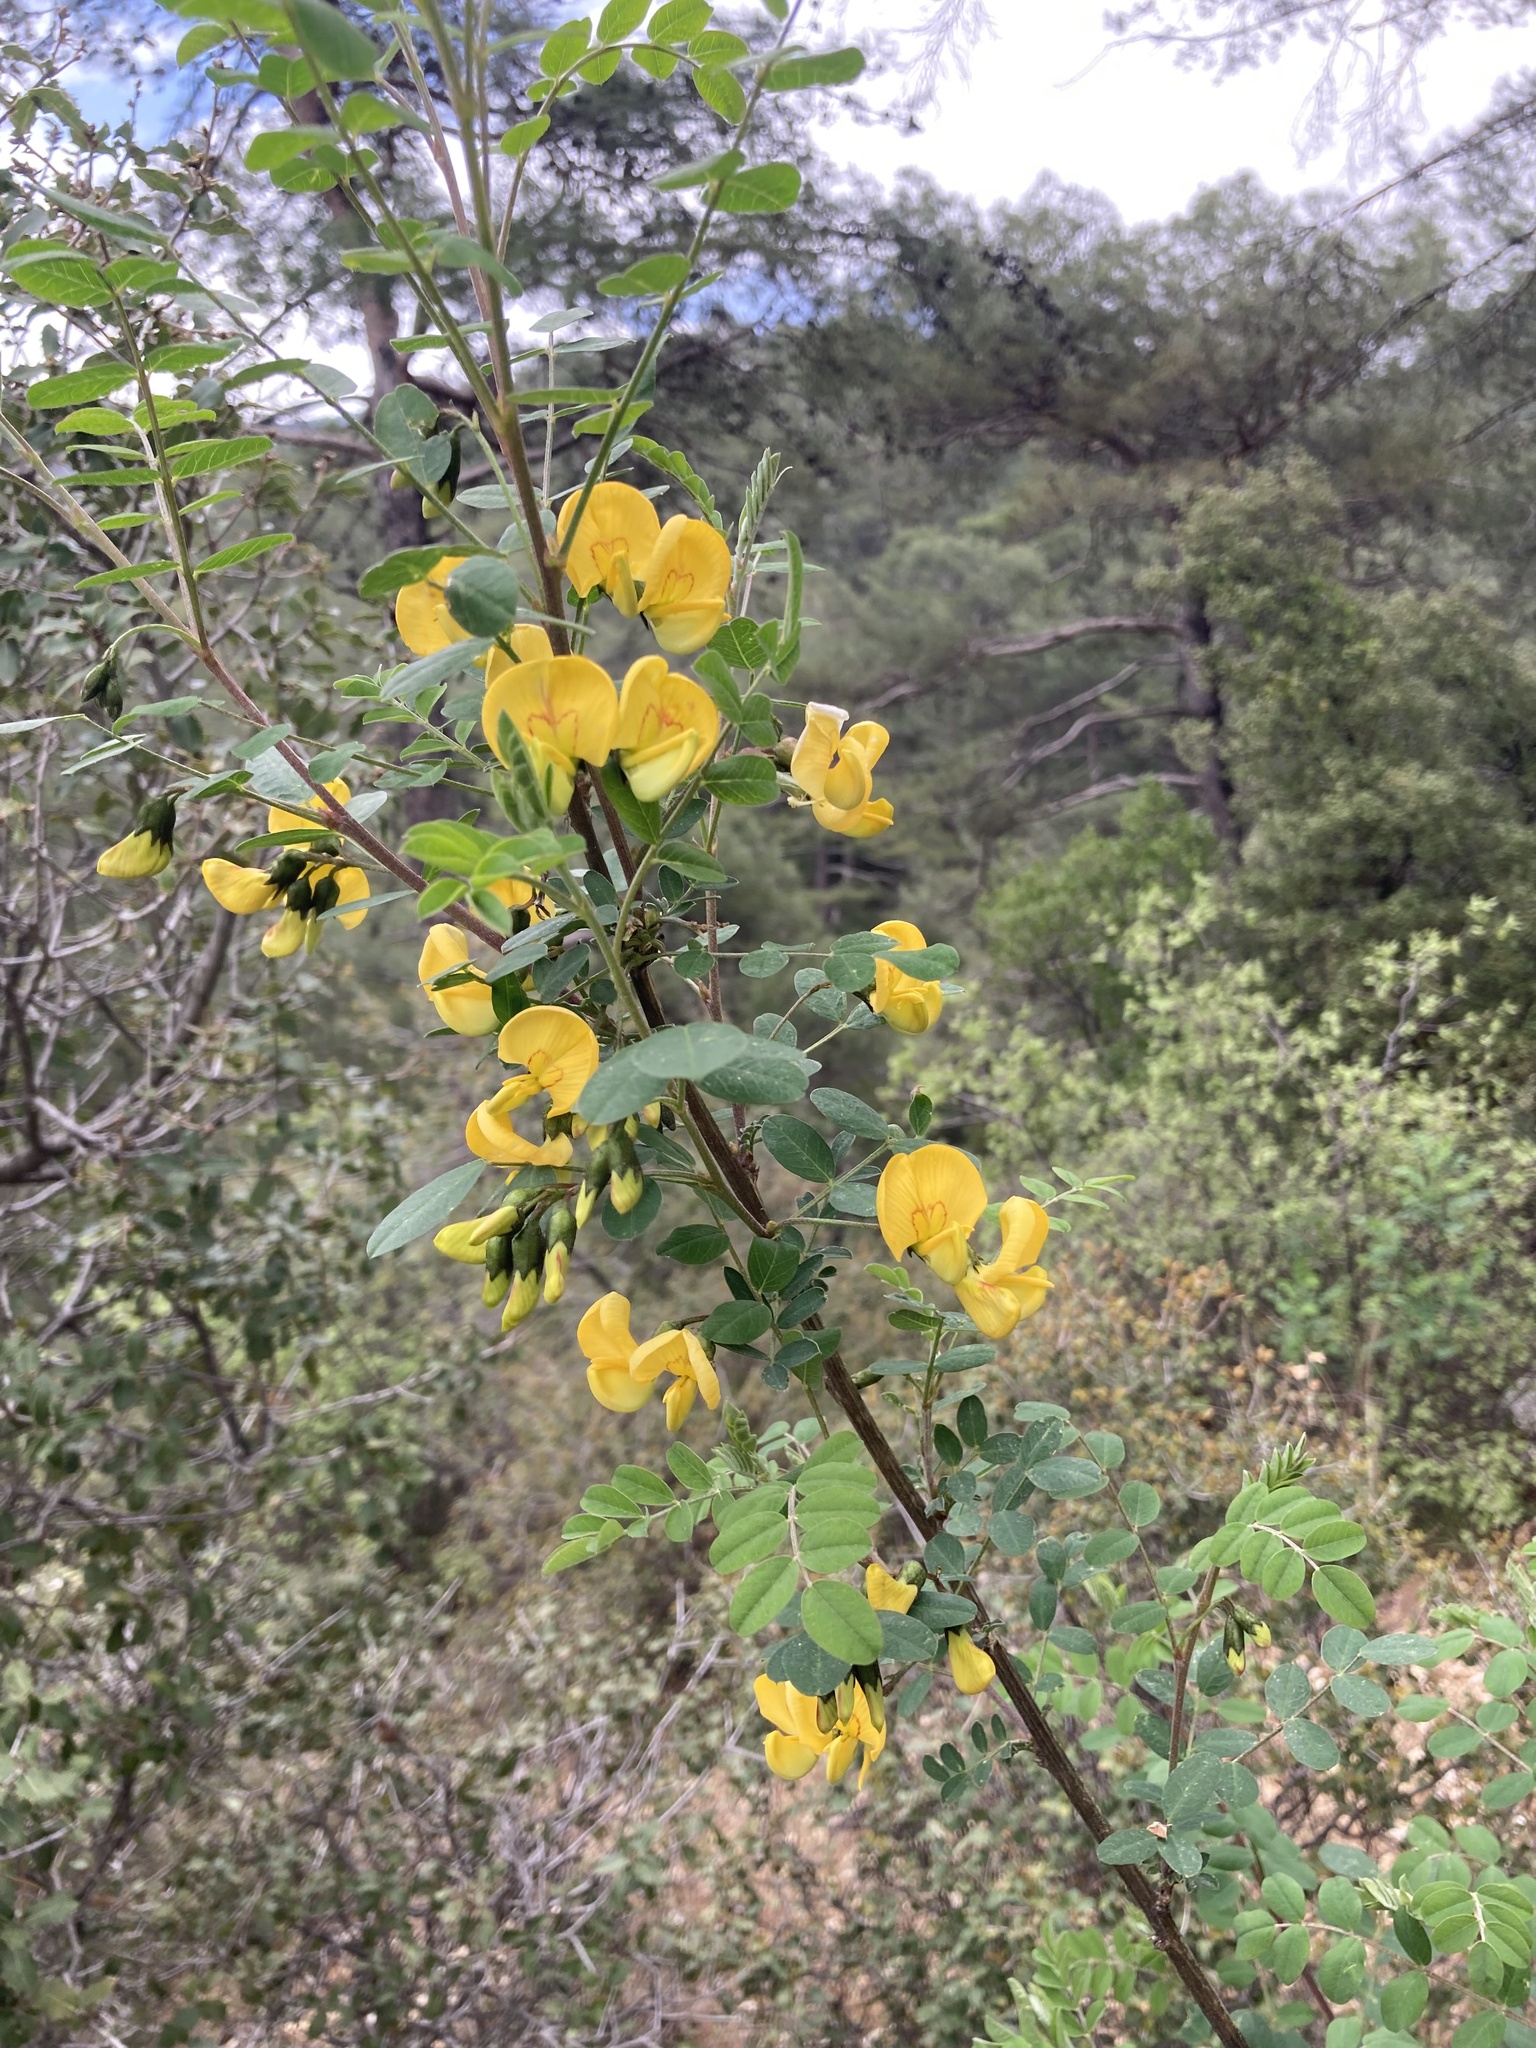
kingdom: Plantae
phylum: Tracheophyta
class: Magnoliopsida
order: Fabales
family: Fabaceae
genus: Colutea
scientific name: Colutea cilicica
